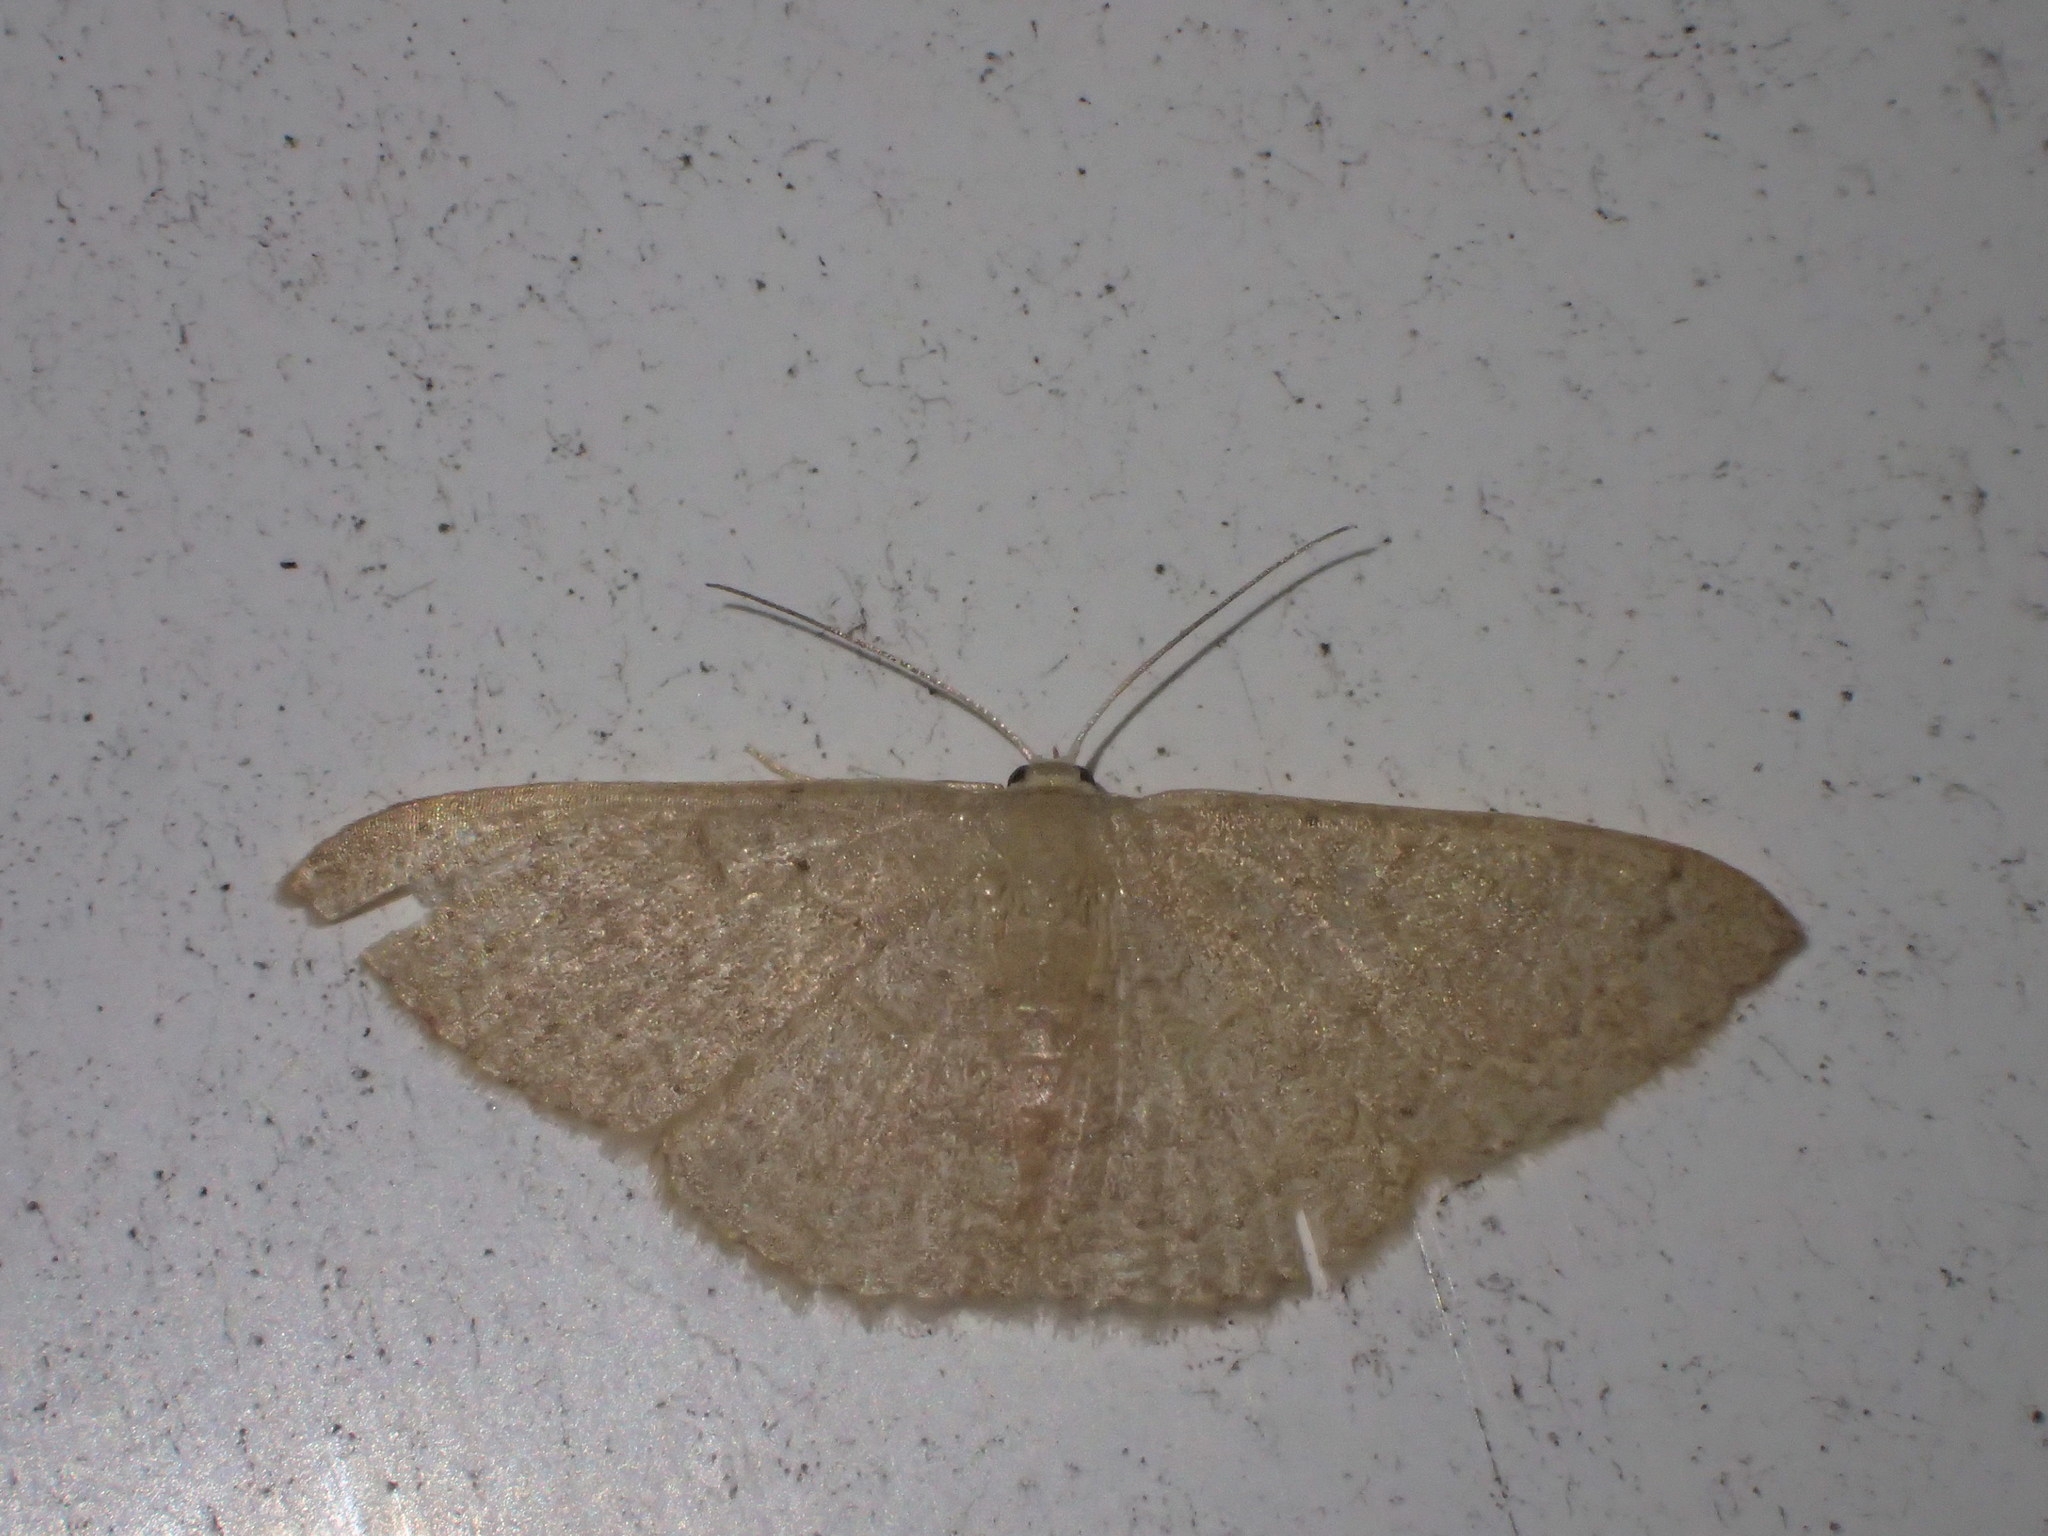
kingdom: Animalia
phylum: Arthropoda
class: Insecta
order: Lepidoptera
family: Geometridae
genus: Pleuroprucha
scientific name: Pleuroprucha insulsaria
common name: Common tan wave
